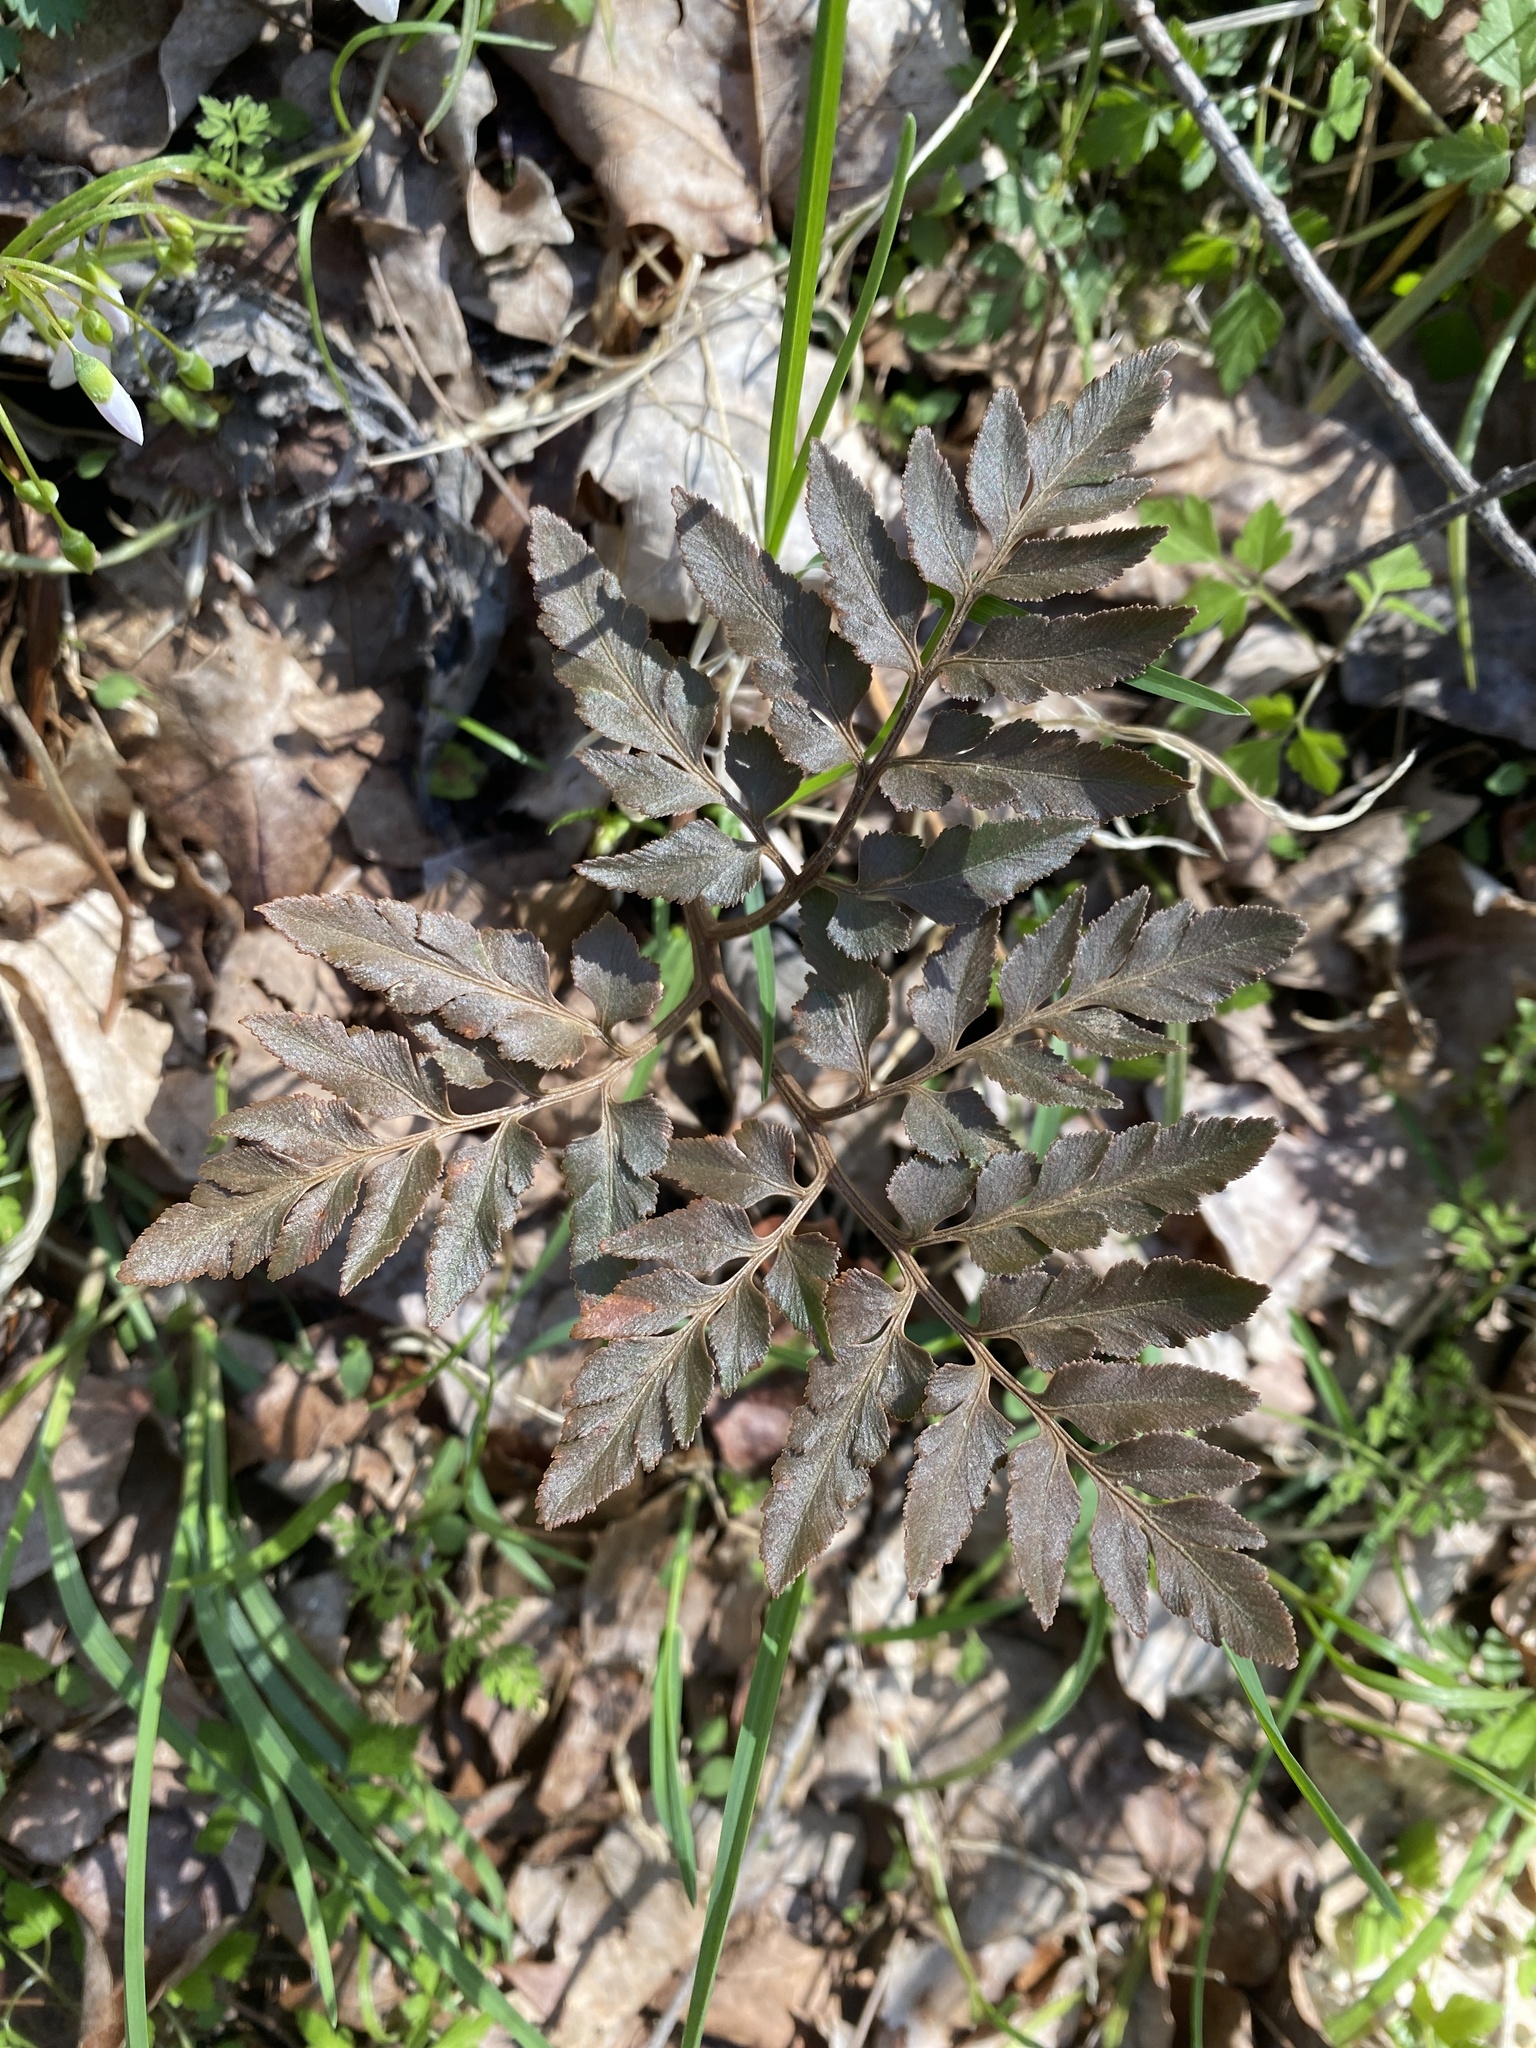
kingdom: Plantae
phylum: Tracheophyta
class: Polypodiopsida
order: Ophioglossales
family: Ophioglossaceae
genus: Sceptridium
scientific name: Sceptridium dissectum
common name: Cut-leaved grapefern
